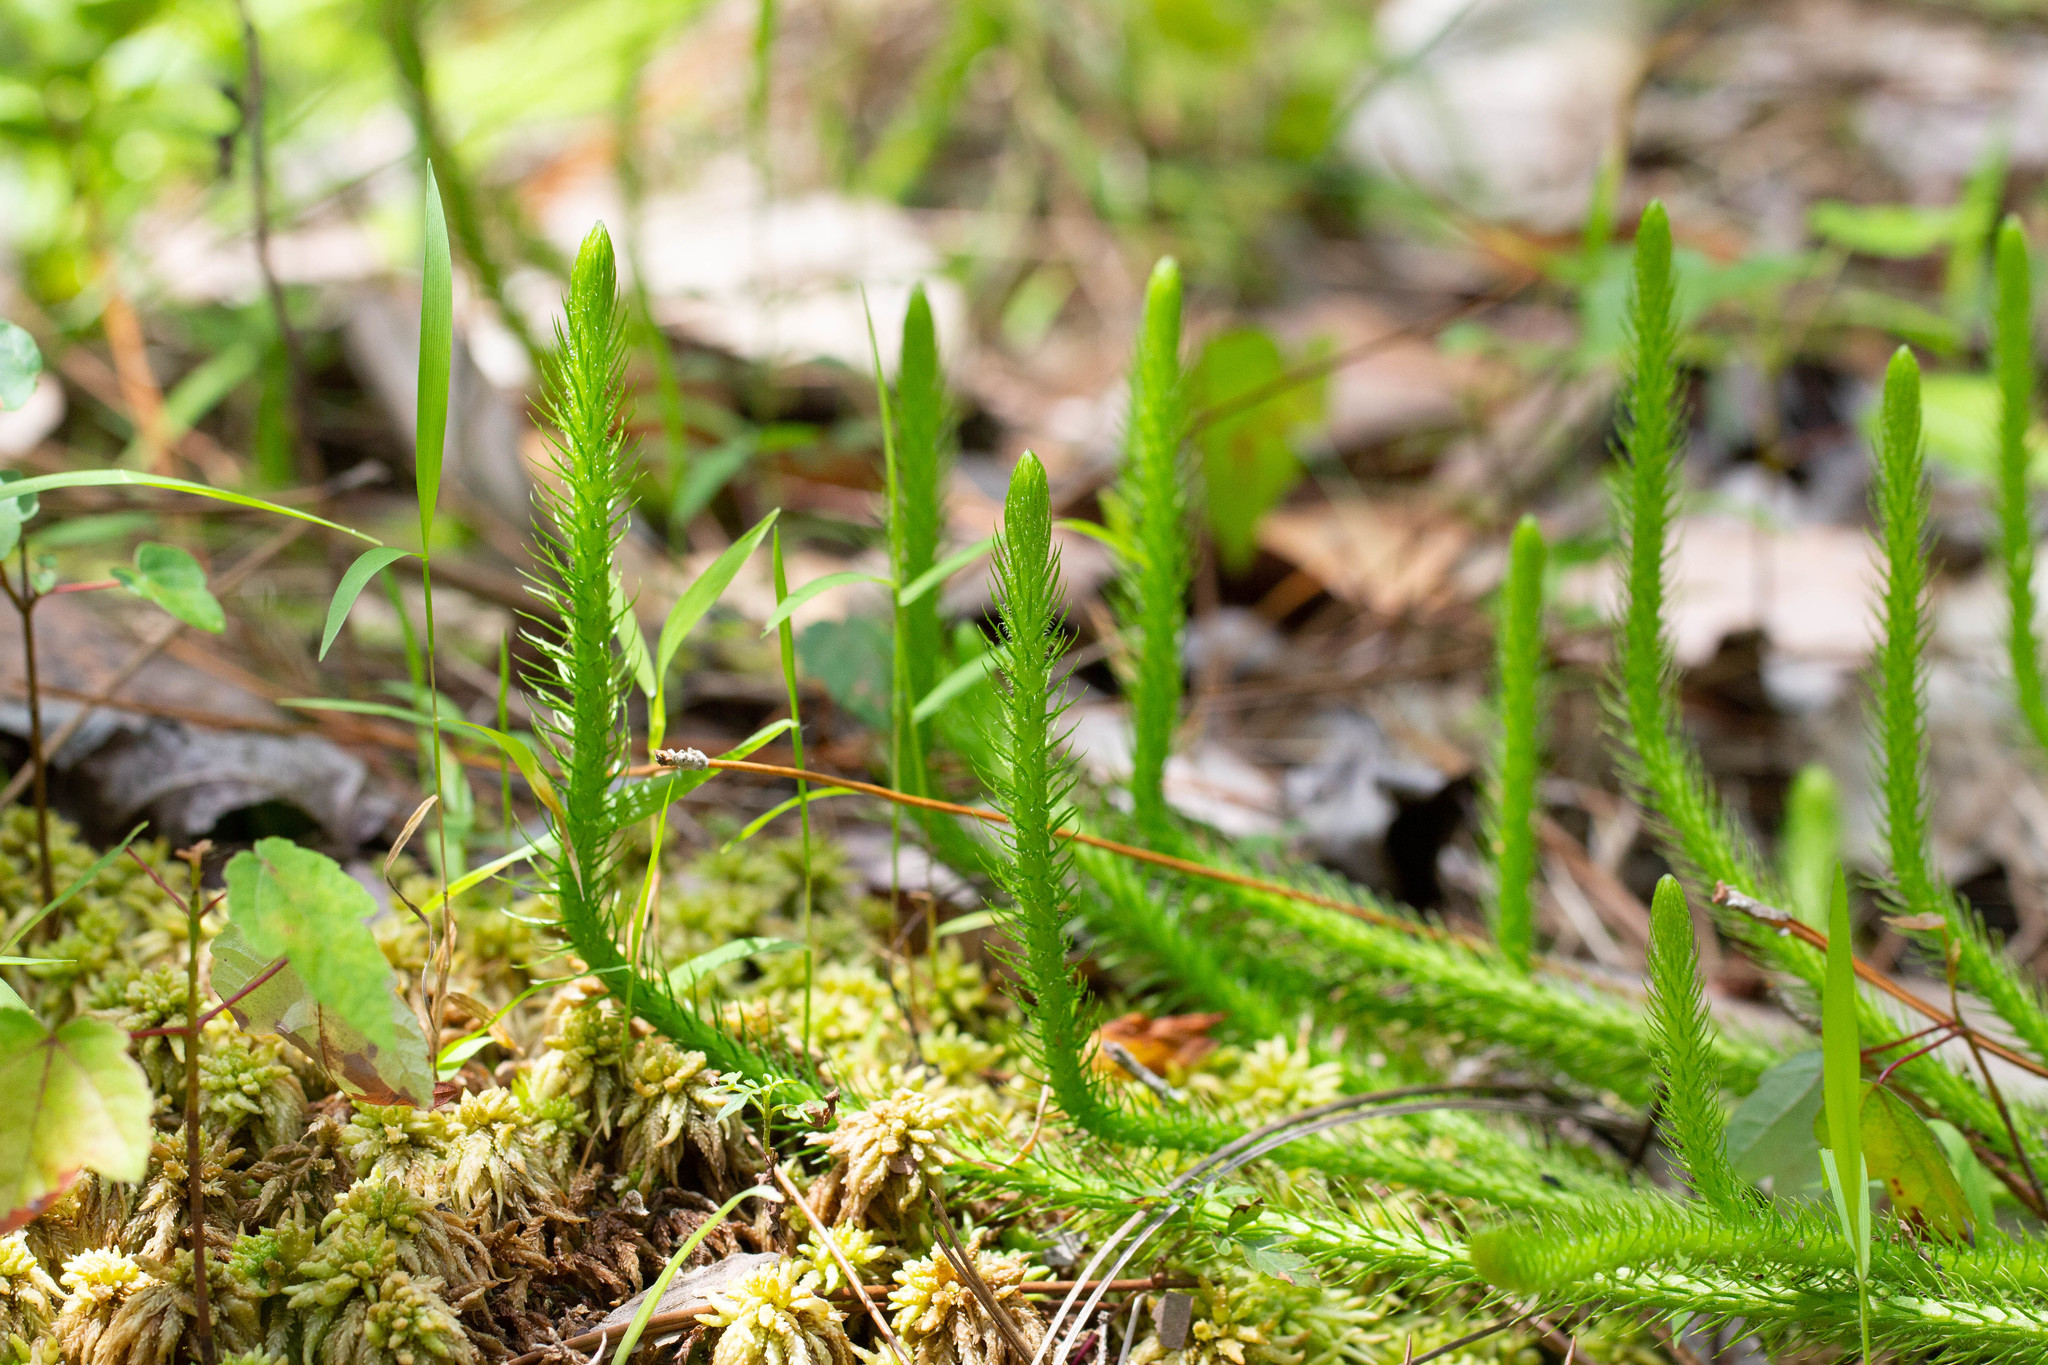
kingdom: Plantae
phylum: Tracheophyta
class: Lycopodiopsida
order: Lycopodiales
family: Lycopodiaceae
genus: Lycopodiella
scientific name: Lycopodiella alopecuroides
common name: Foxtail clubmoss
